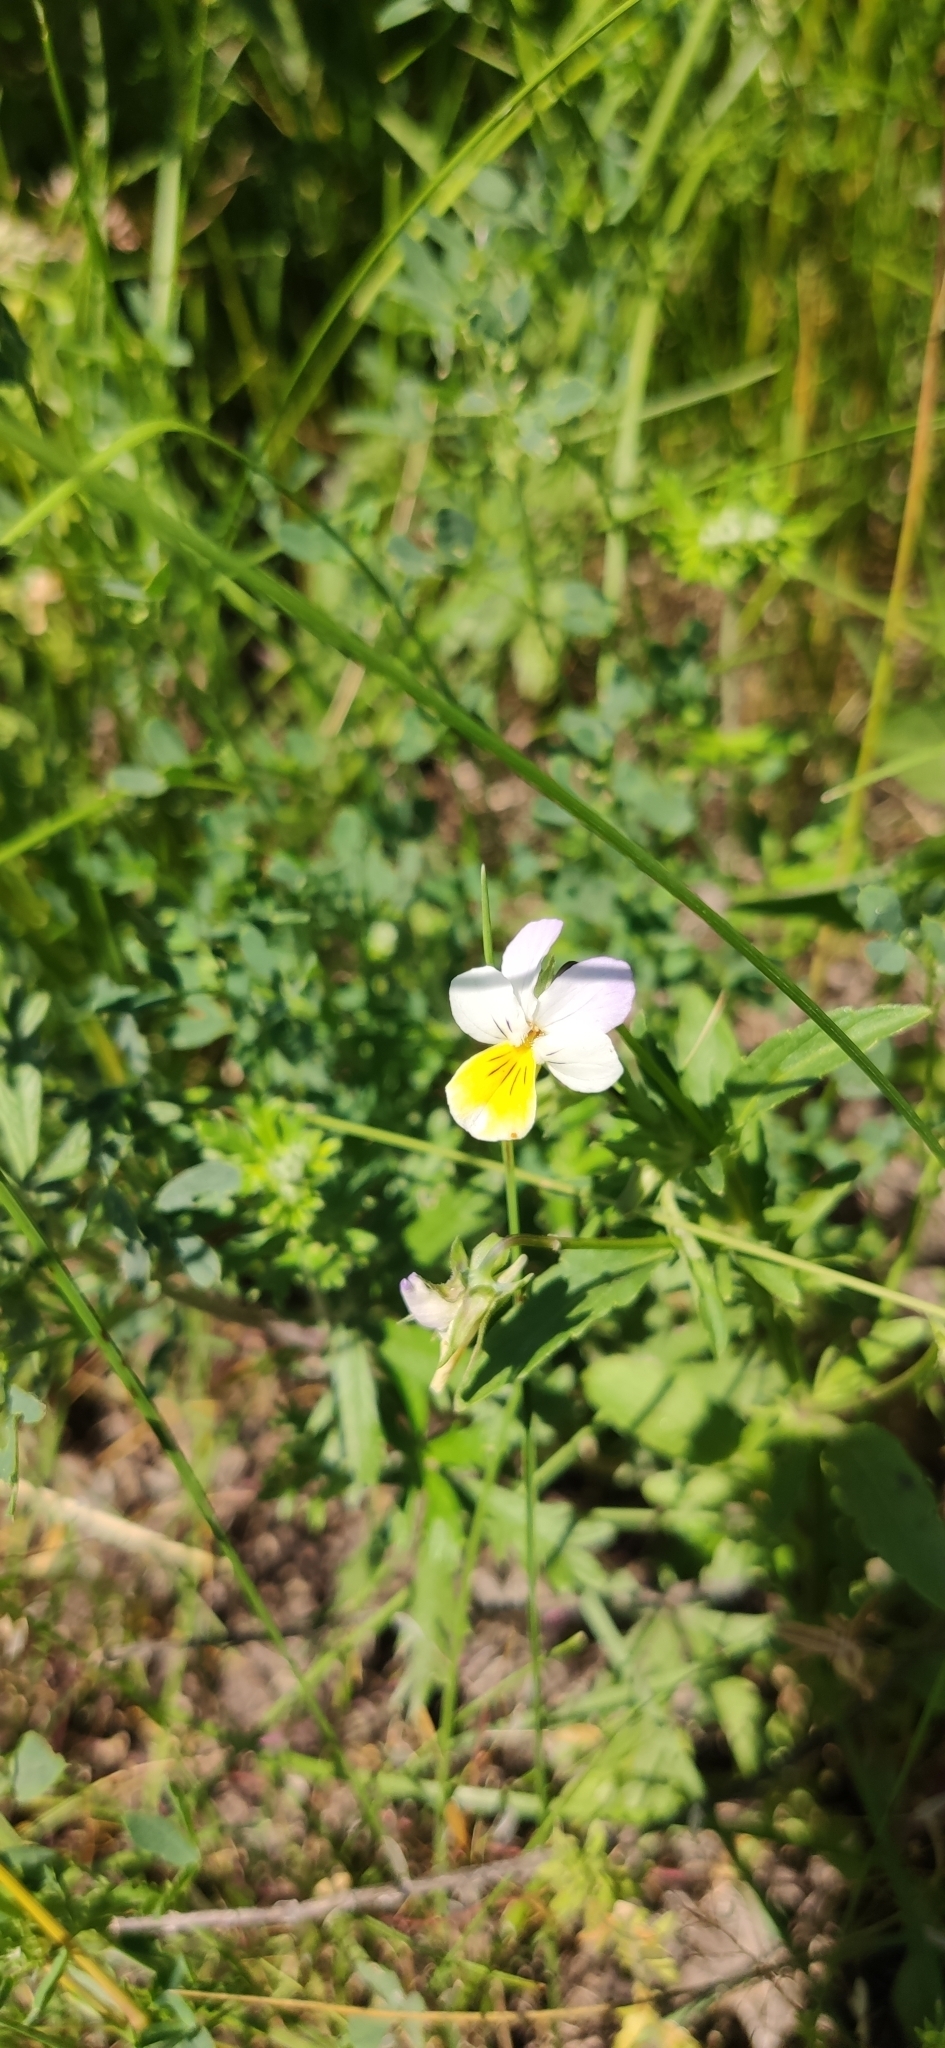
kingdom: Plantae
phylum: Tracheophyta
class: Magnoliopsida
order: Malpighiales
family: Violaceae
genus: Viola
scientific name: Viola tricolor
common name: Pansy
